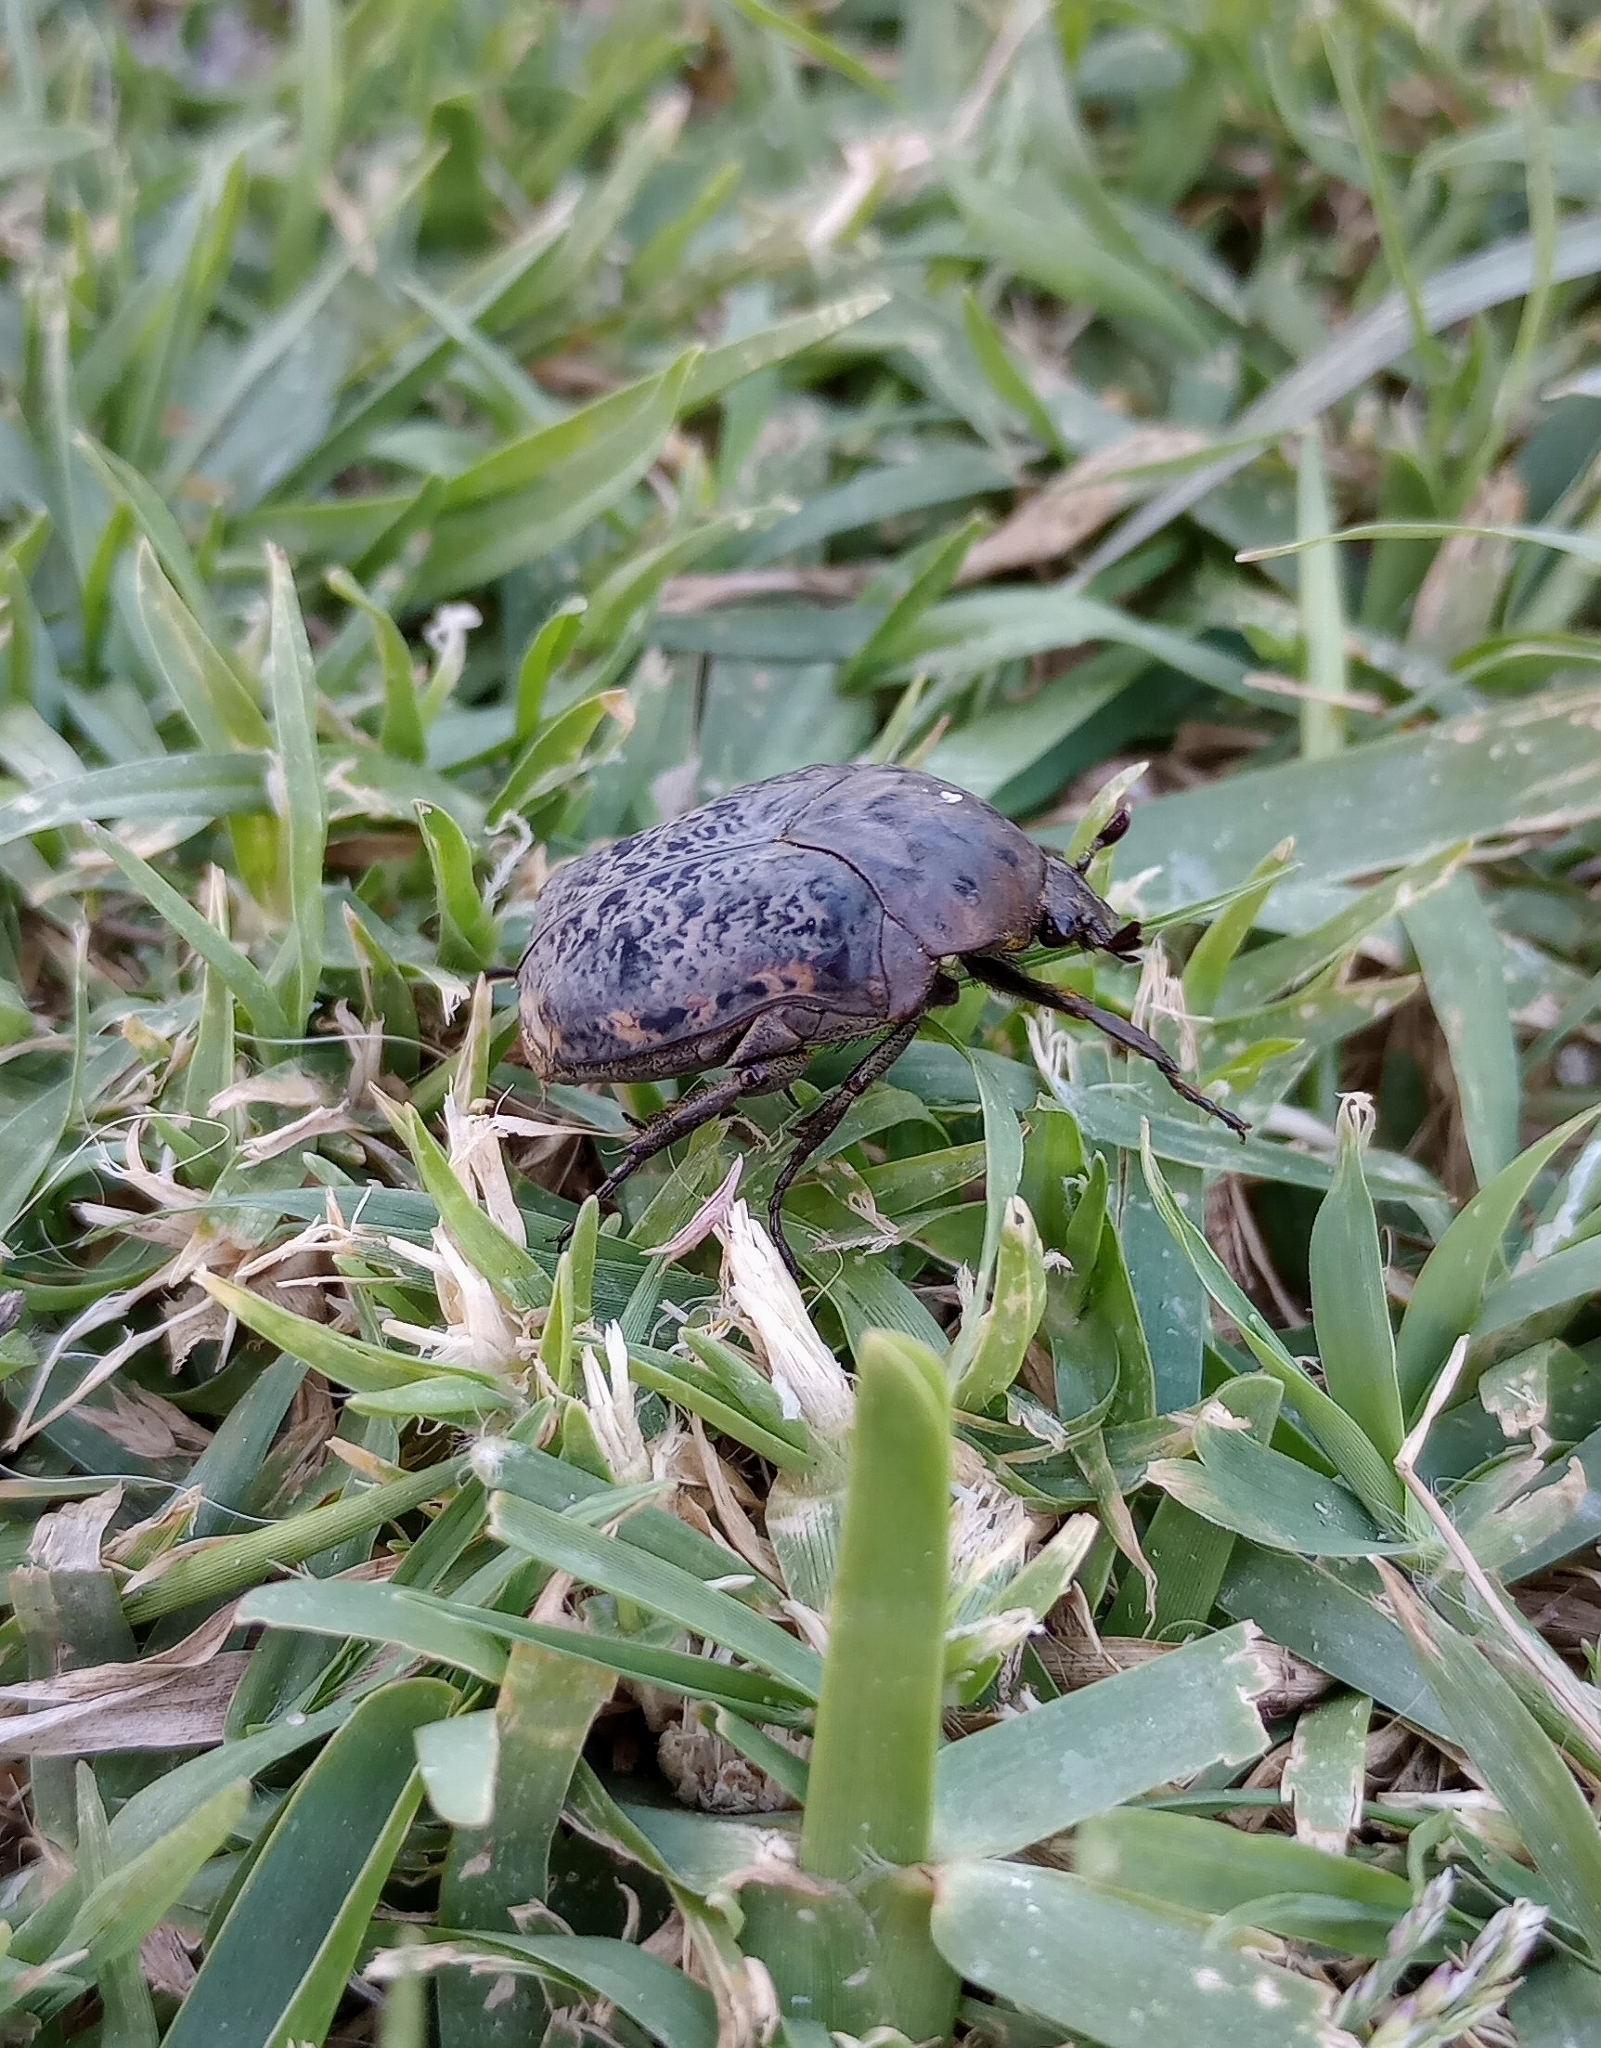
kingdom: Animalia
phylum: Arthropoda
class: Insecta
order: Coleoptera
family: Scarabaeidae
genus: Gymnetis
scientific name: Gymnetis chalcipes
